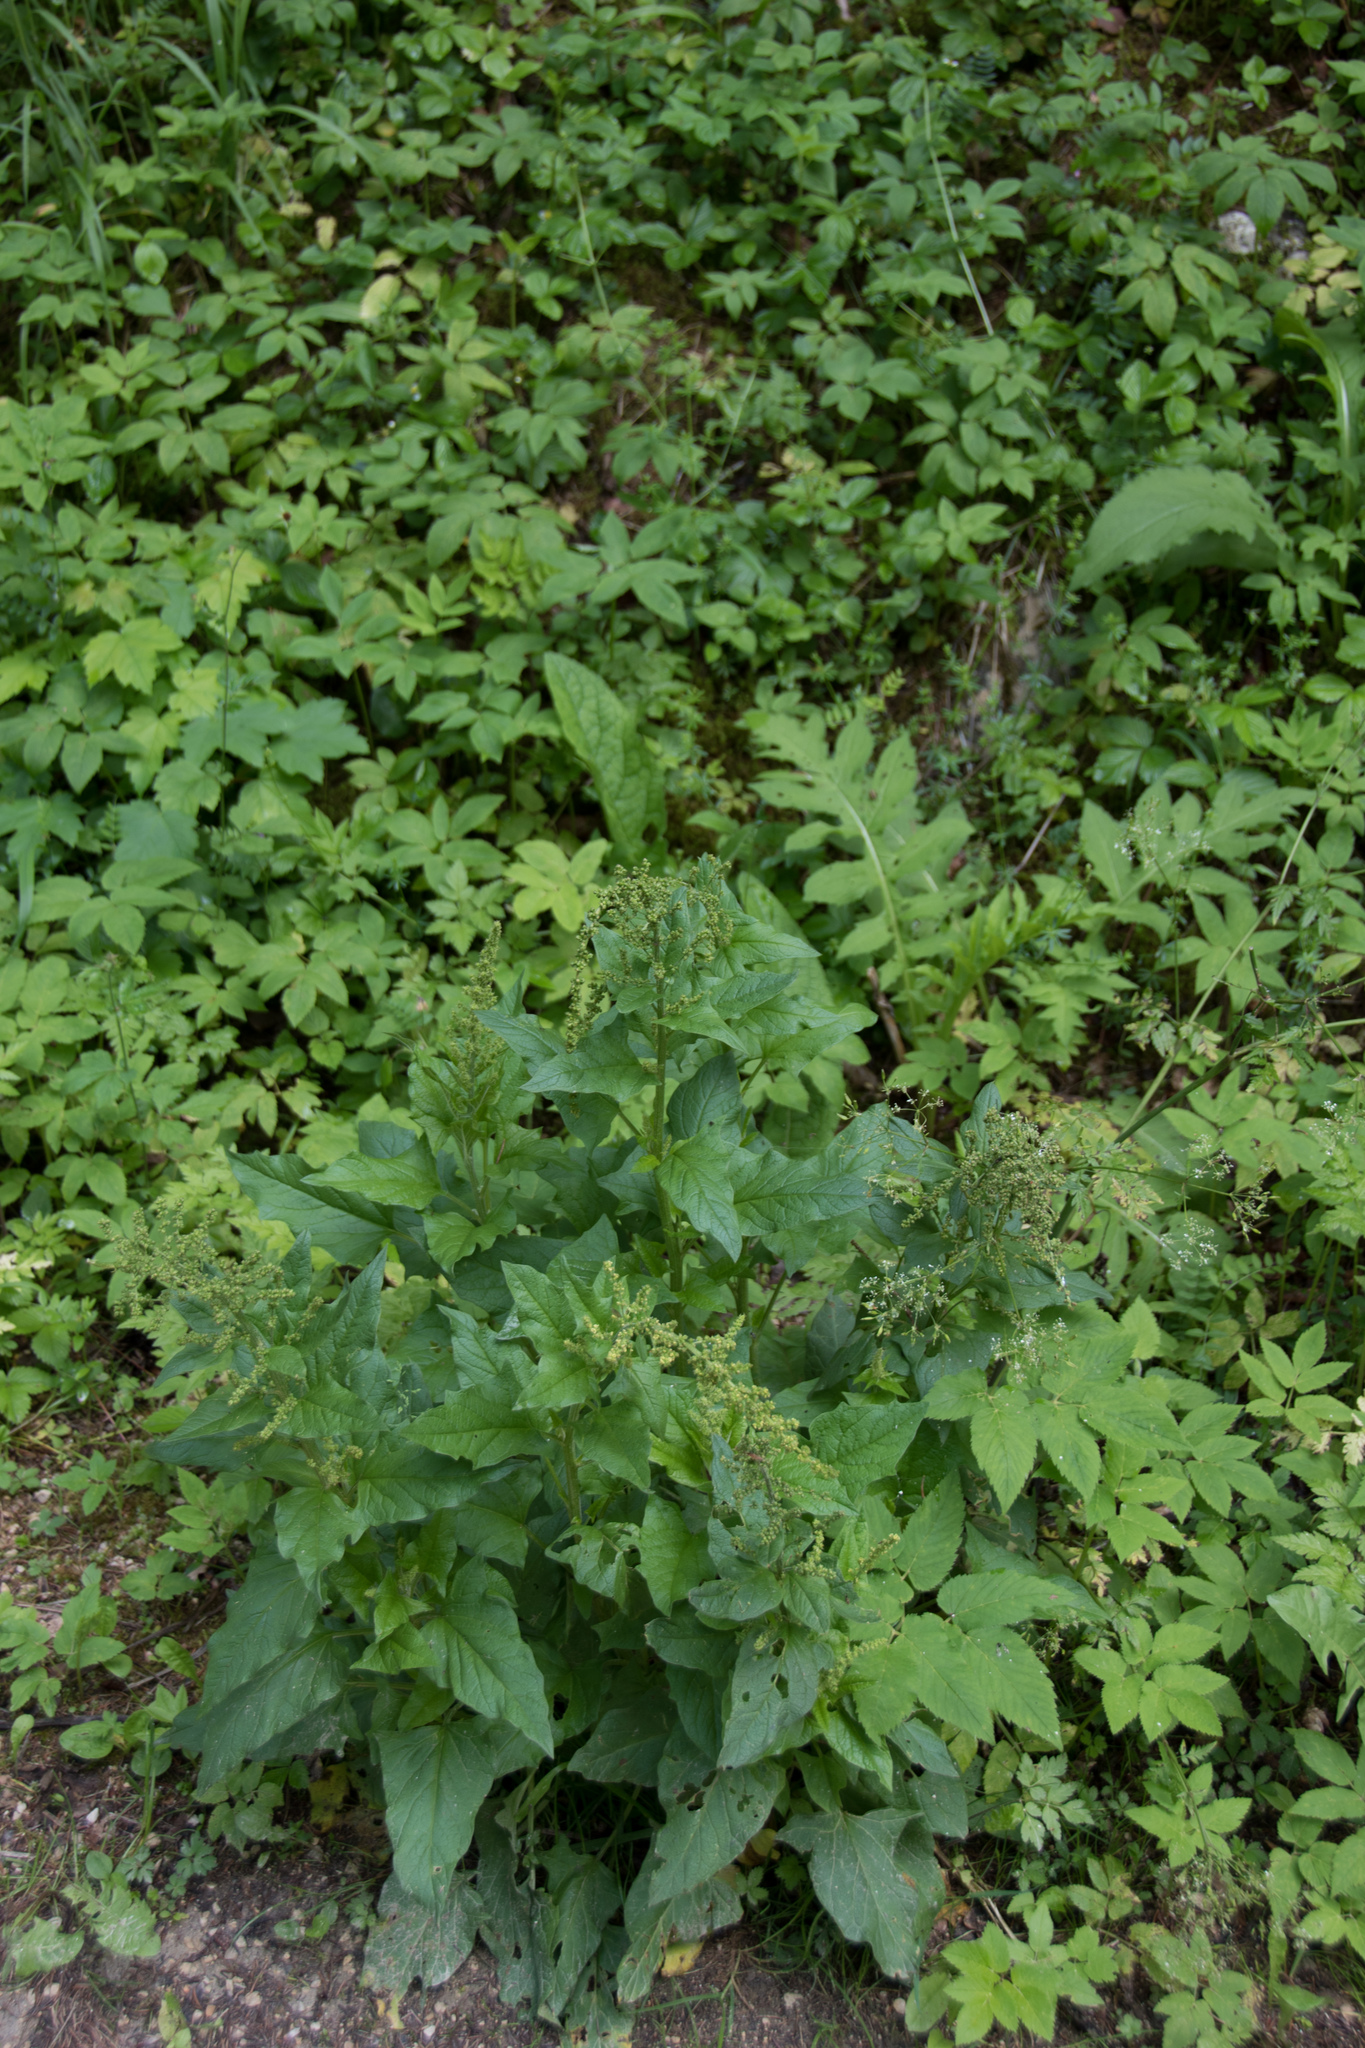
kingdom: Plantae
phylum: Tracheophyta
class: Magnoliopsida
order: Caryophyllales
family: Amaranthaceae
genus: Blitum
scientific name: Blitum bonus-henricus
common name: Good king henry
